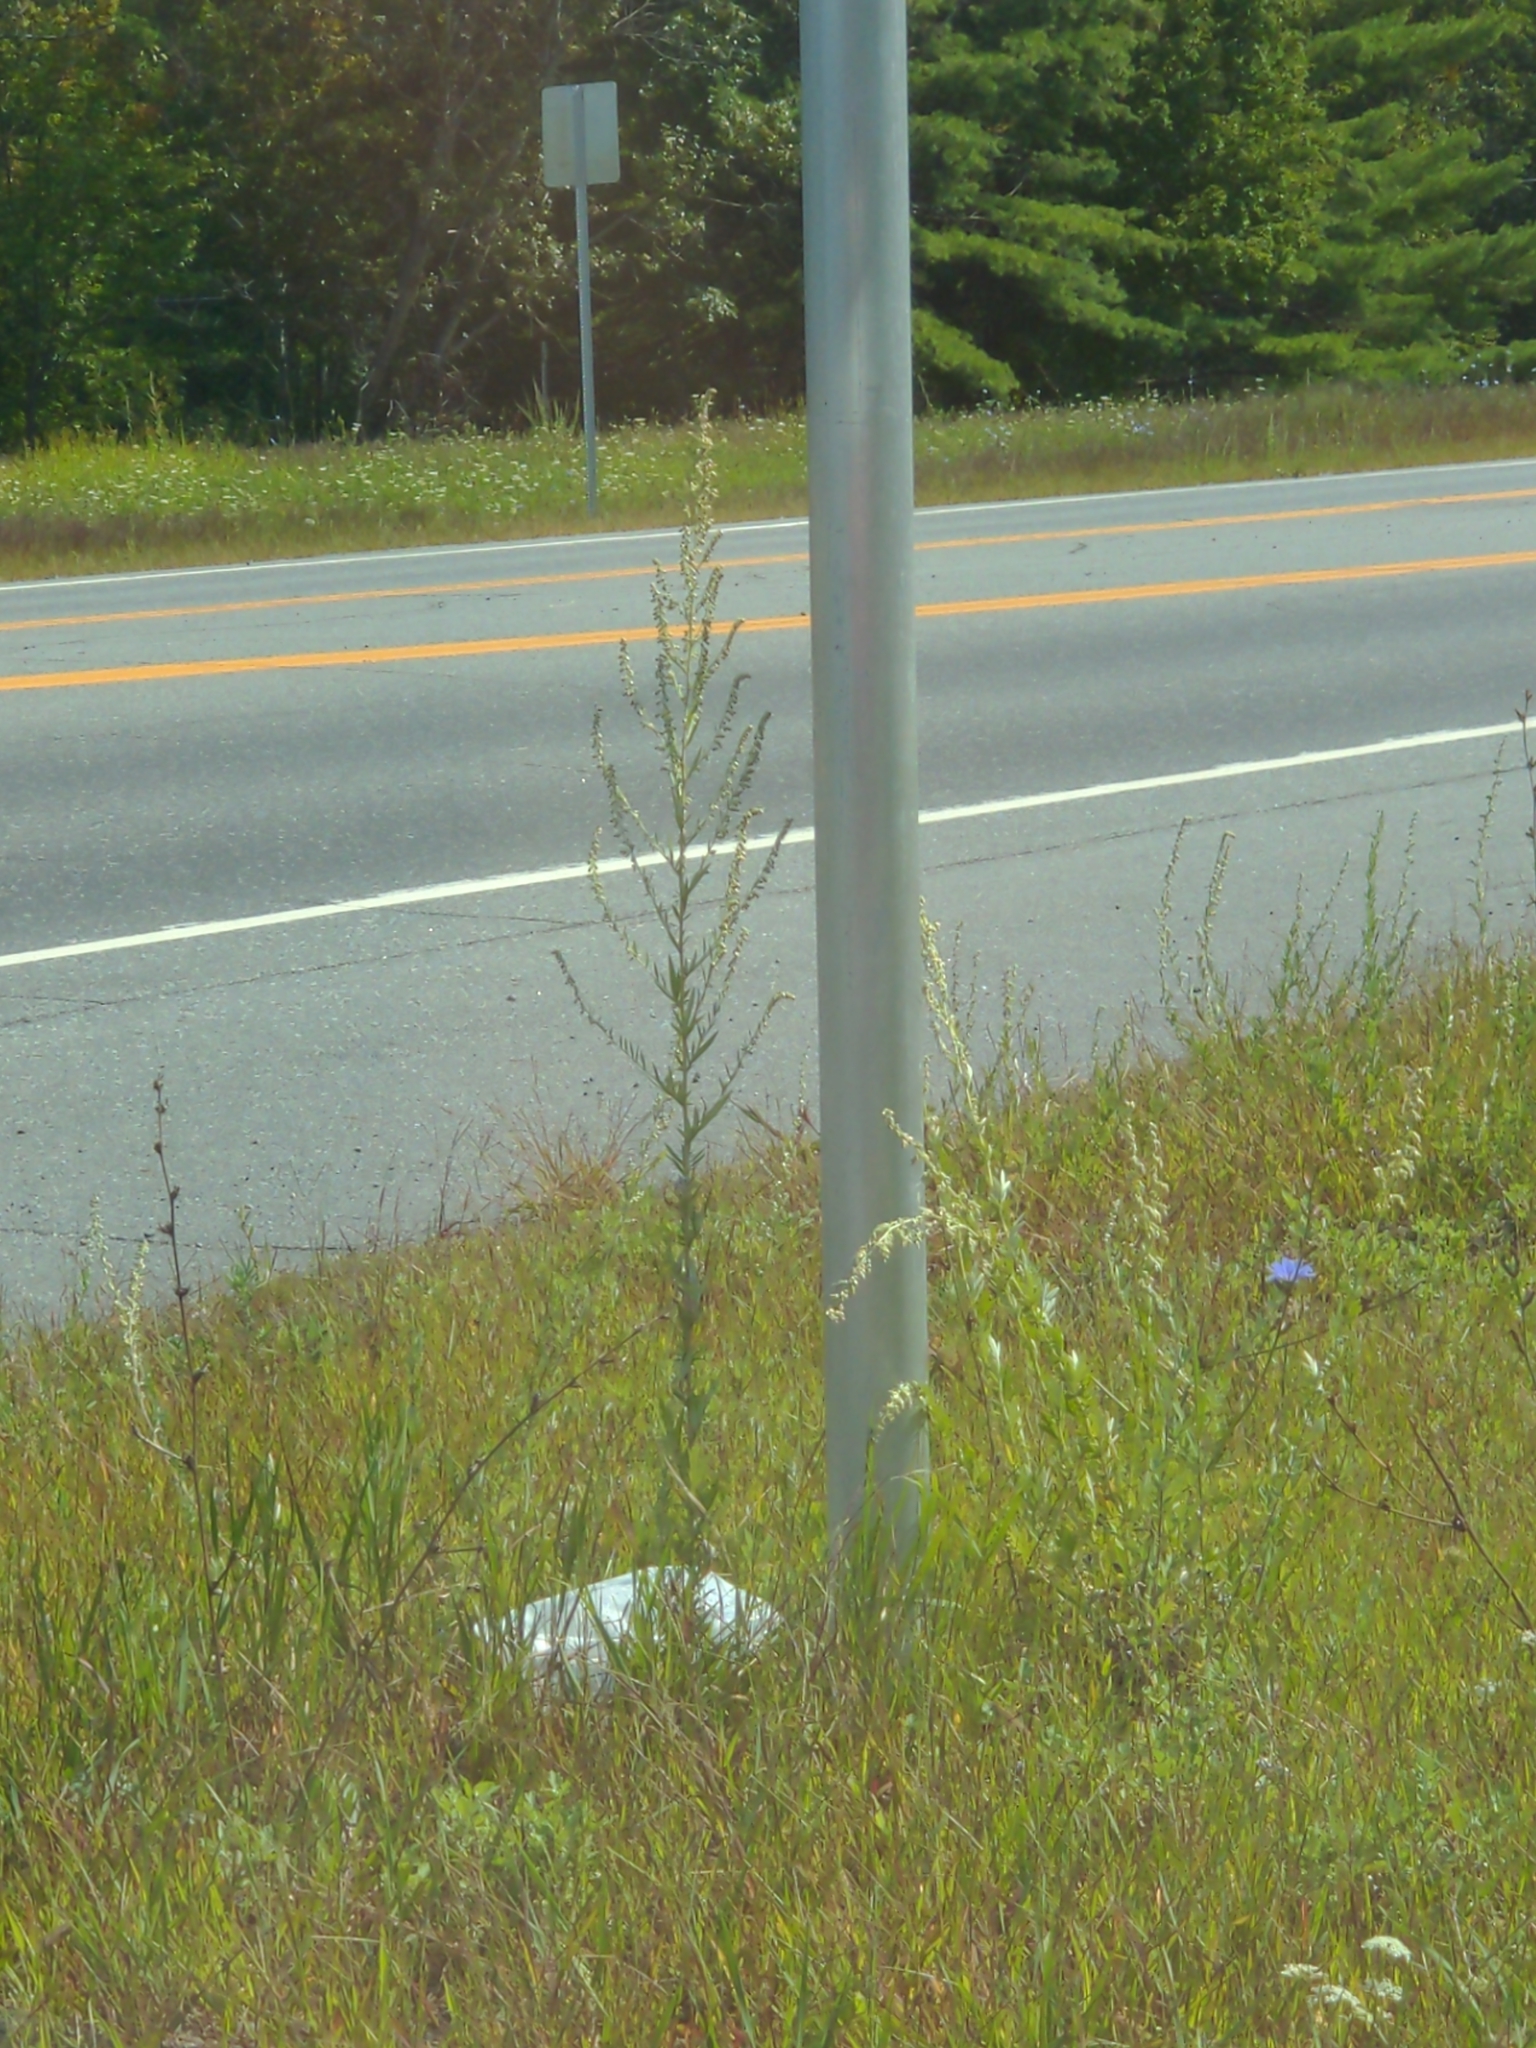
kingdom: Plantae
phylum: Tracheophyta
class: Magnoliopsida
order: Asterales
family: Asteraceae
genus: Artemisia
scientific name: Artemisia vulgaris
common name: Mugwort
